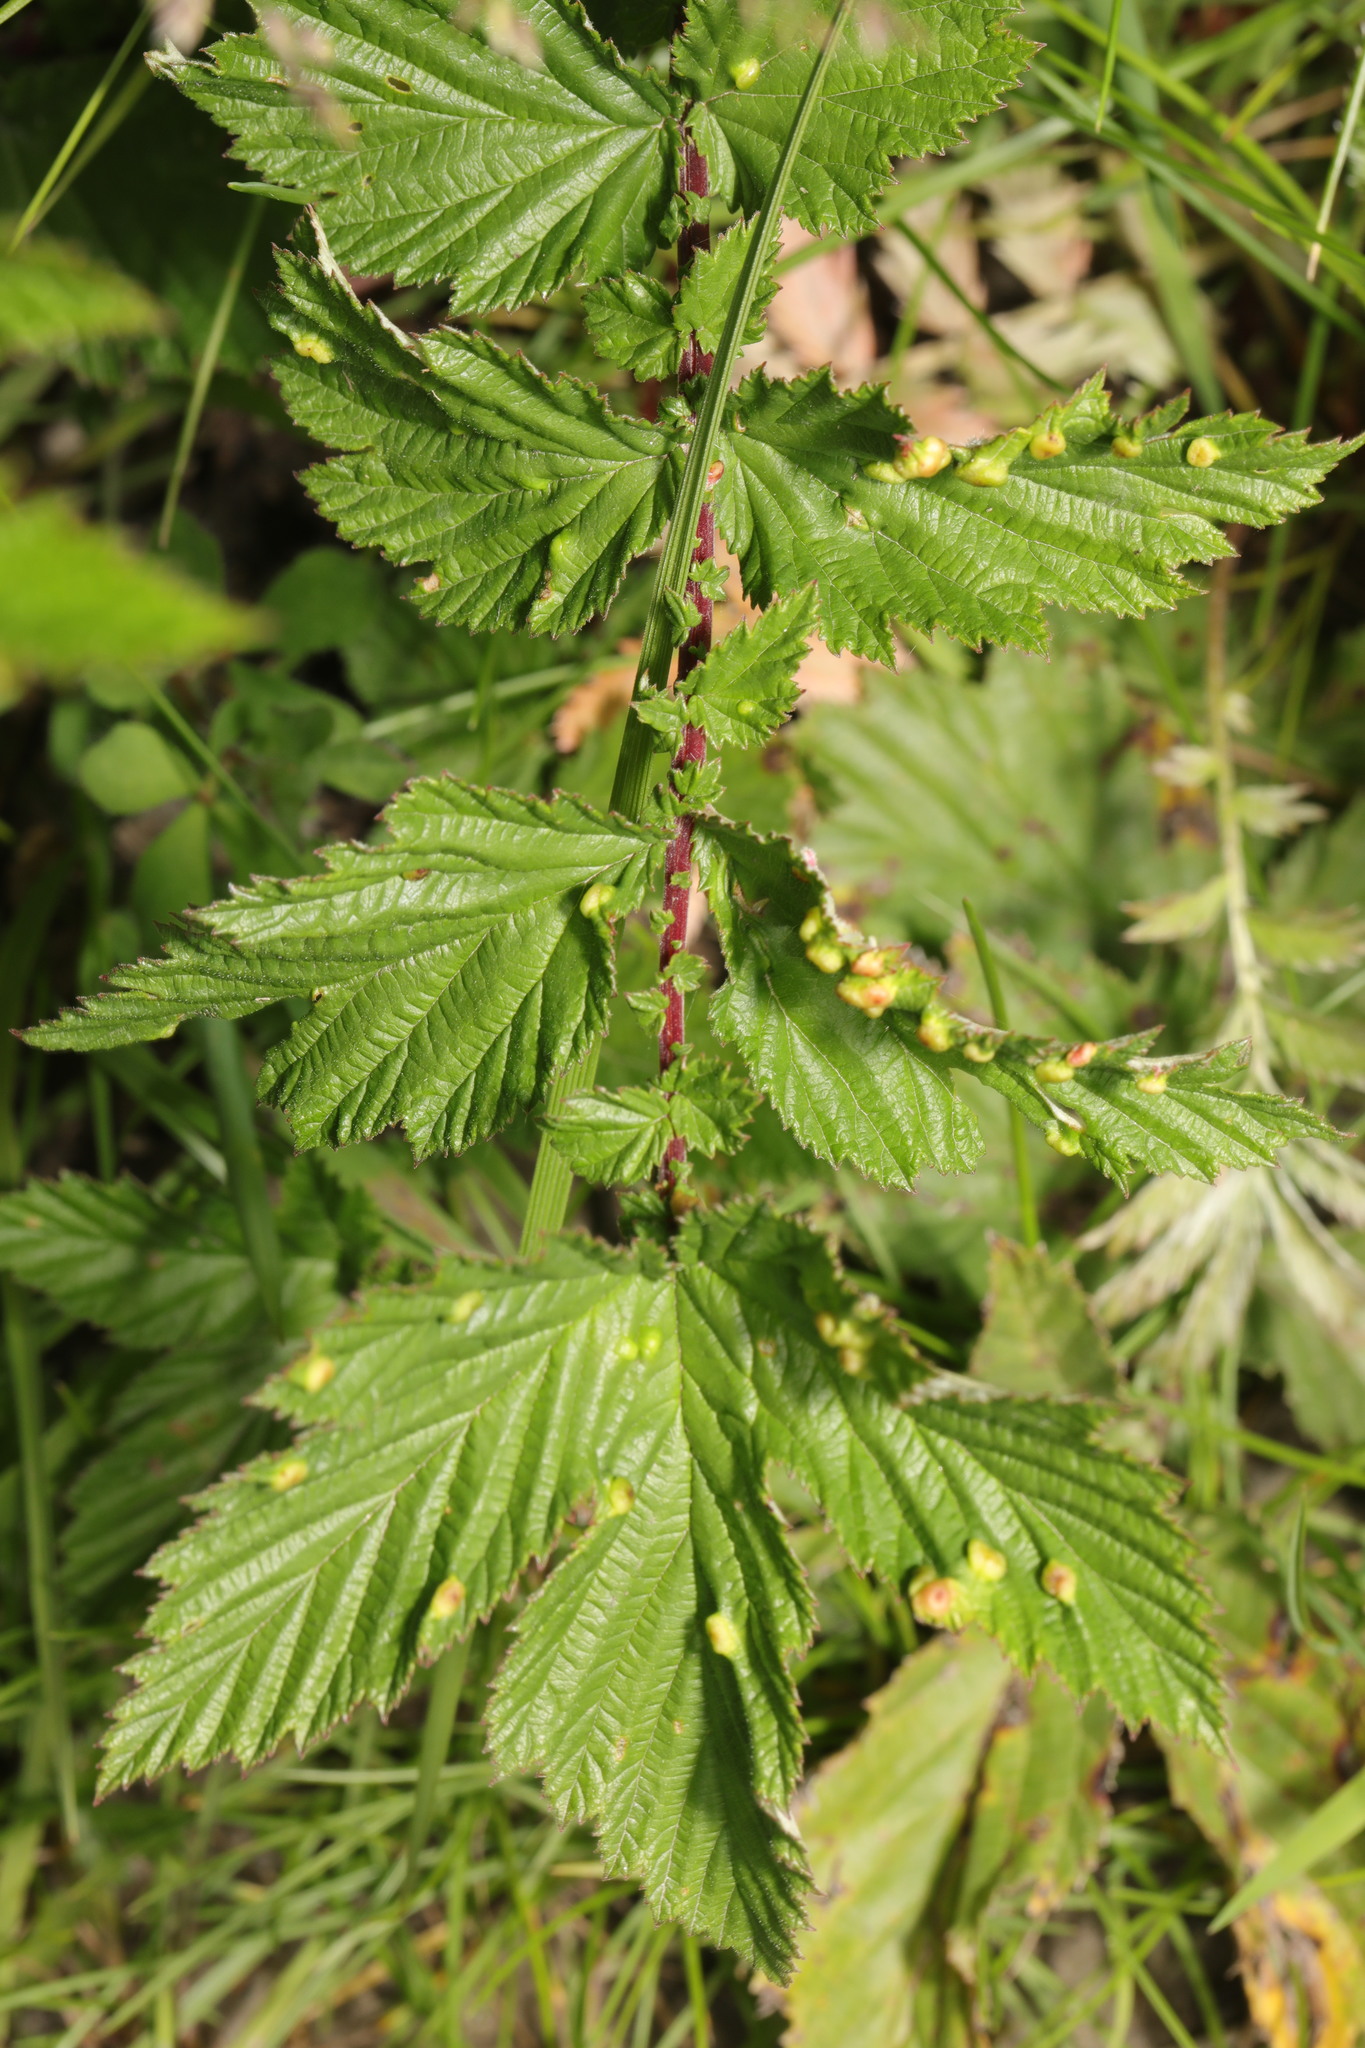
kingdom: Animalia
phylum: Arthropoda
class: Insecta
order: Diptera
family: Cecidomyiidae
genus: Dasineura
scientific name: Dasineura ulmaria
